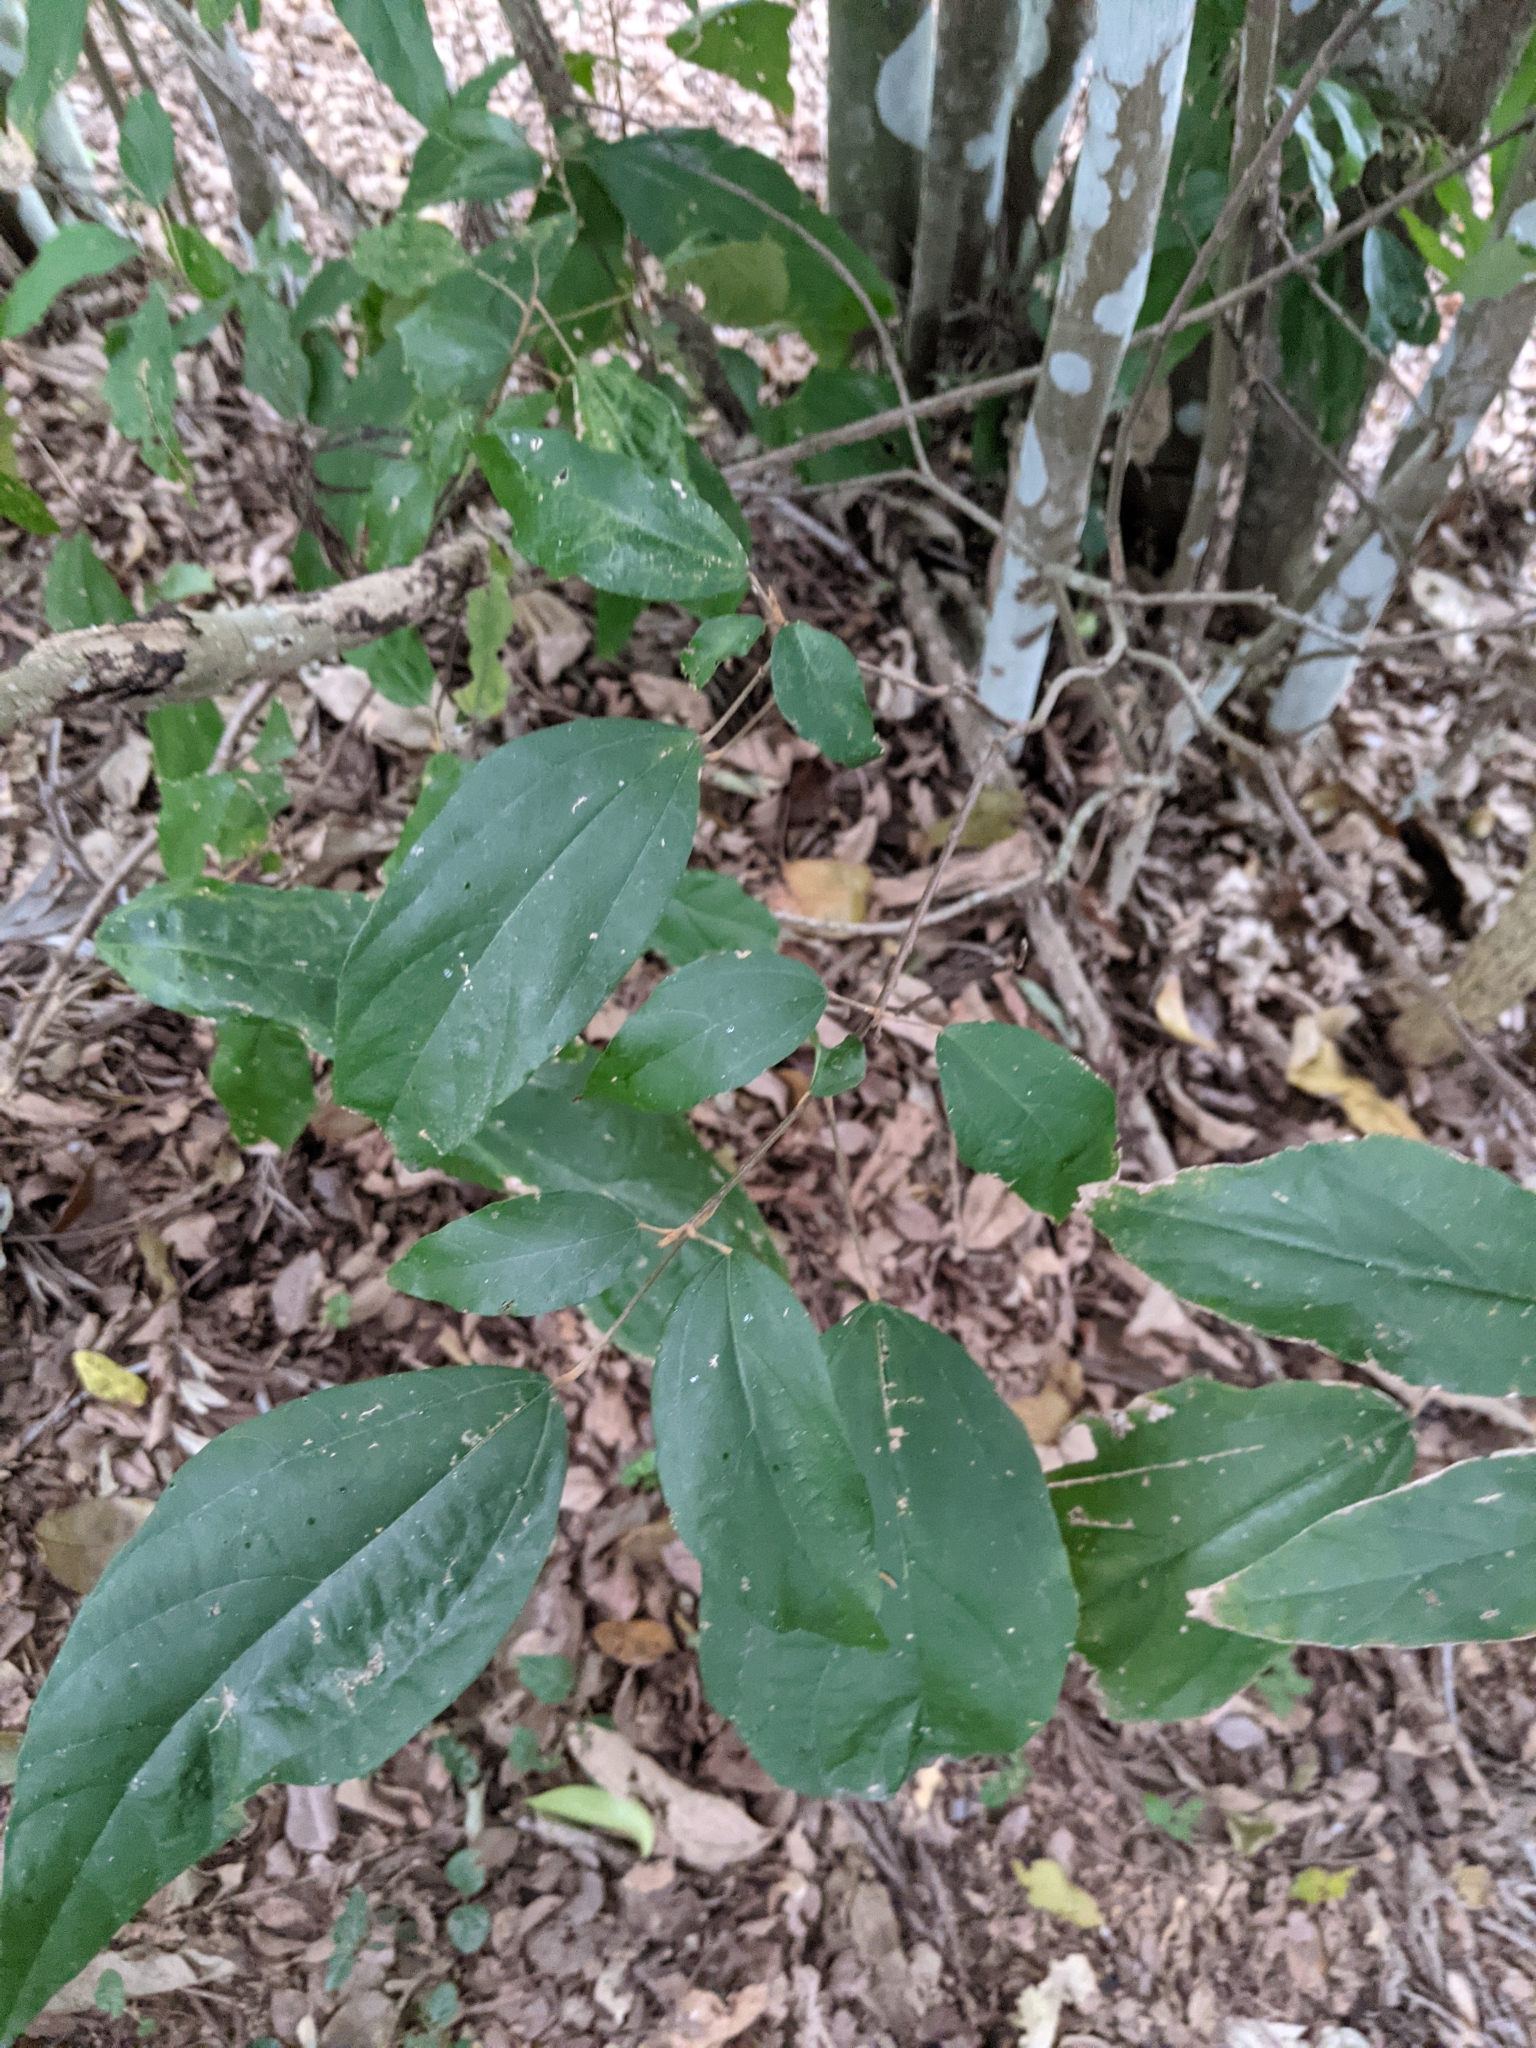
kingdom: Plantae
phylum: Tracheophyta
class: Magnoliopsida
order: Malpighiales
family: Euphorbiaceae
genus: Mallotus
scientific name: Mallotus philippensis
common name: Kamala tree
